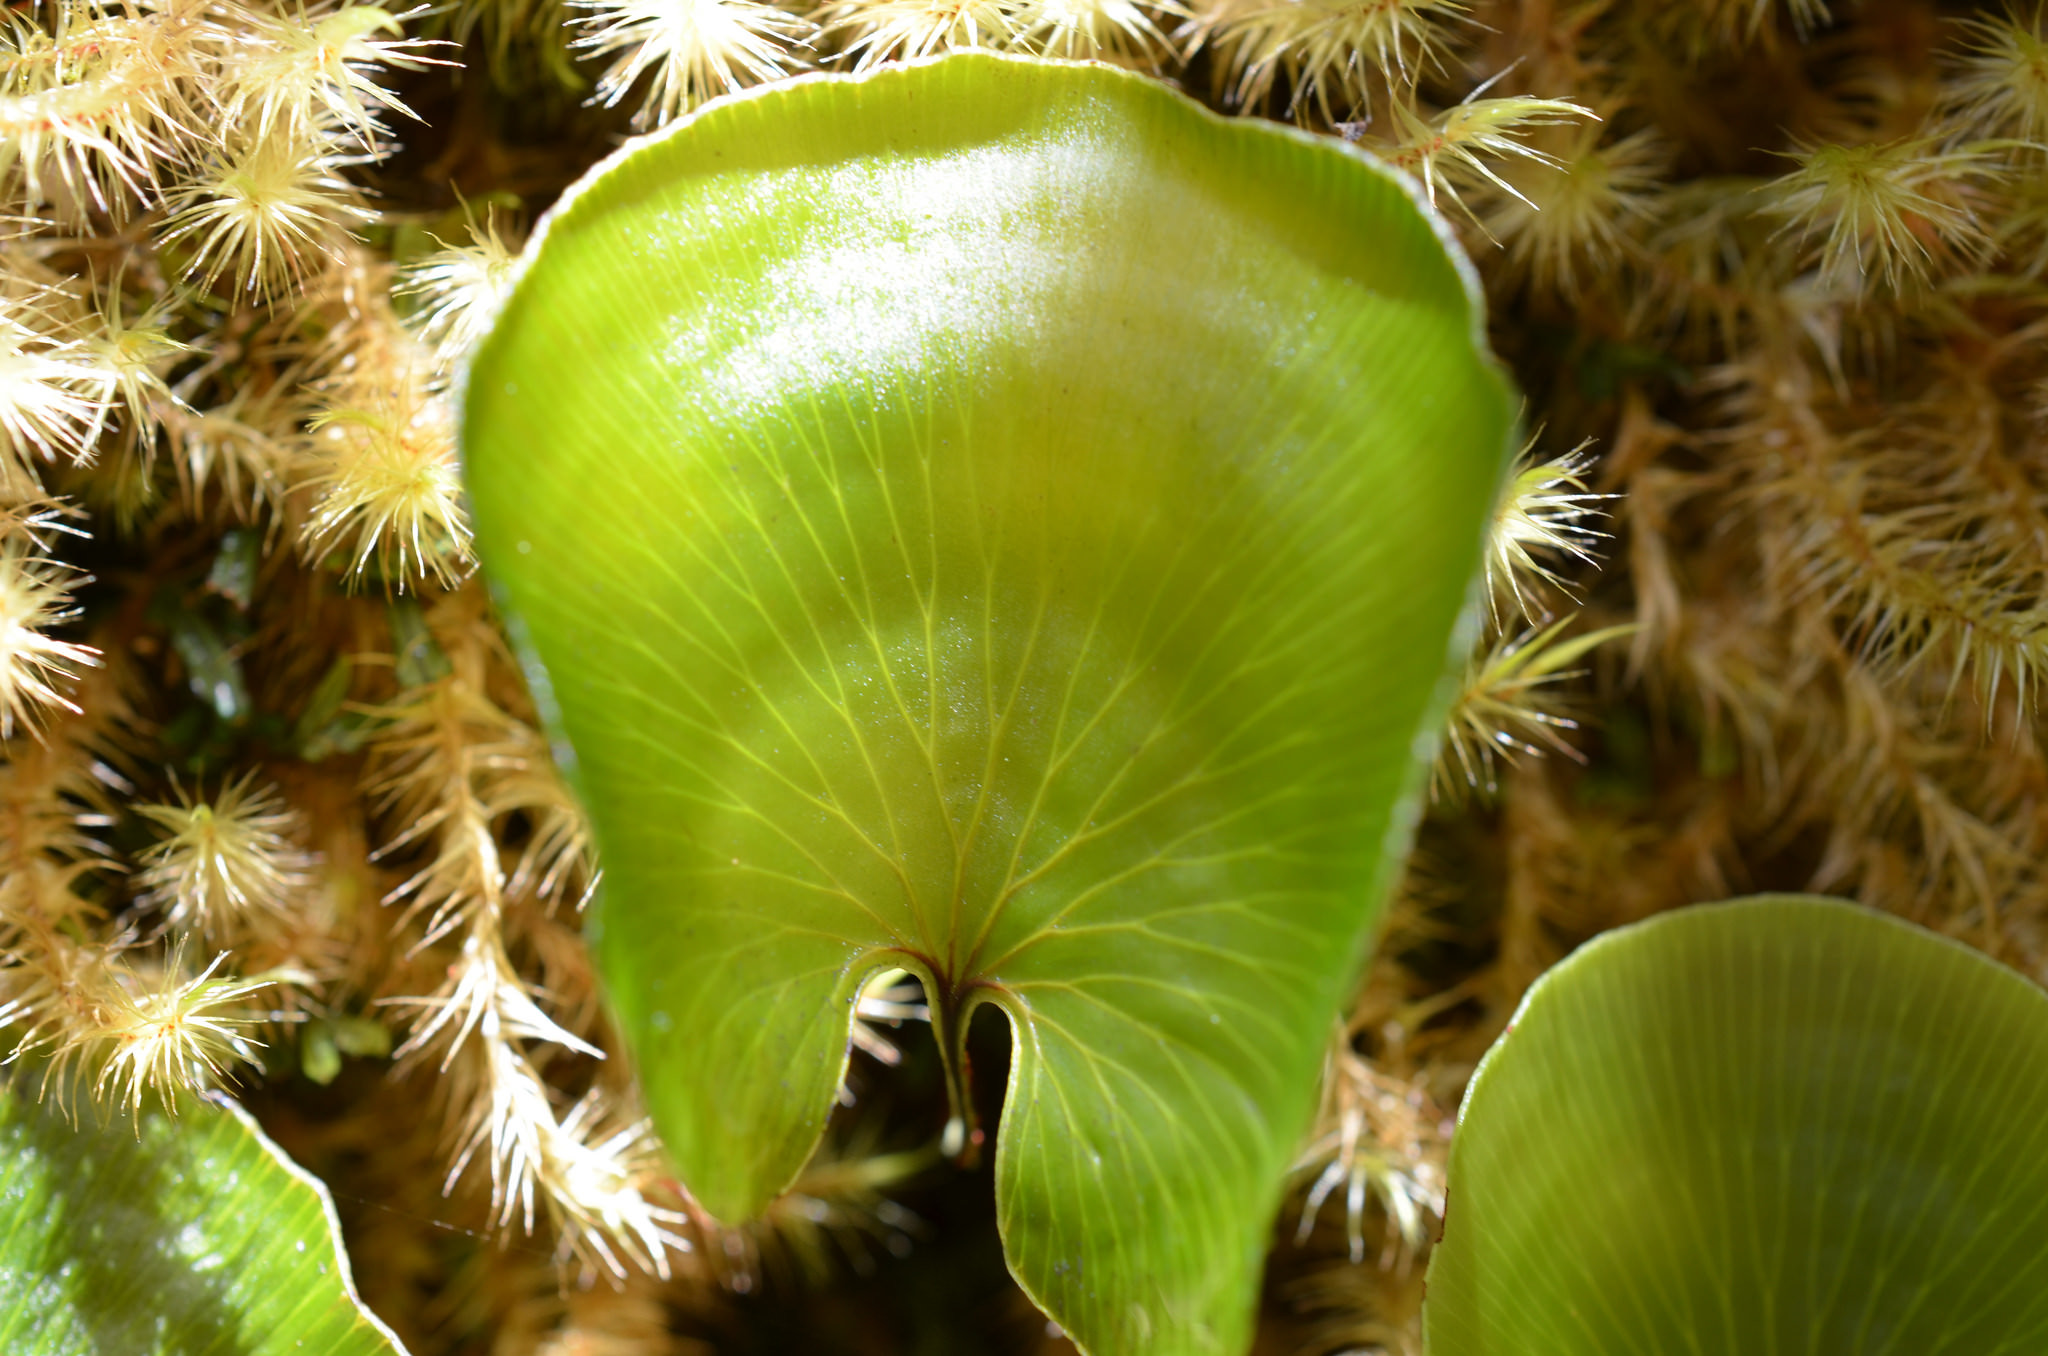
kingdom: Plantae
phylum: Tracheophyta
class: Polypodiopsida
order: Hymenophyllales
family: Hymenophyllaceae
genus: Hymenophyllum
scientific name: Hymenophyllum nephrophyllum
